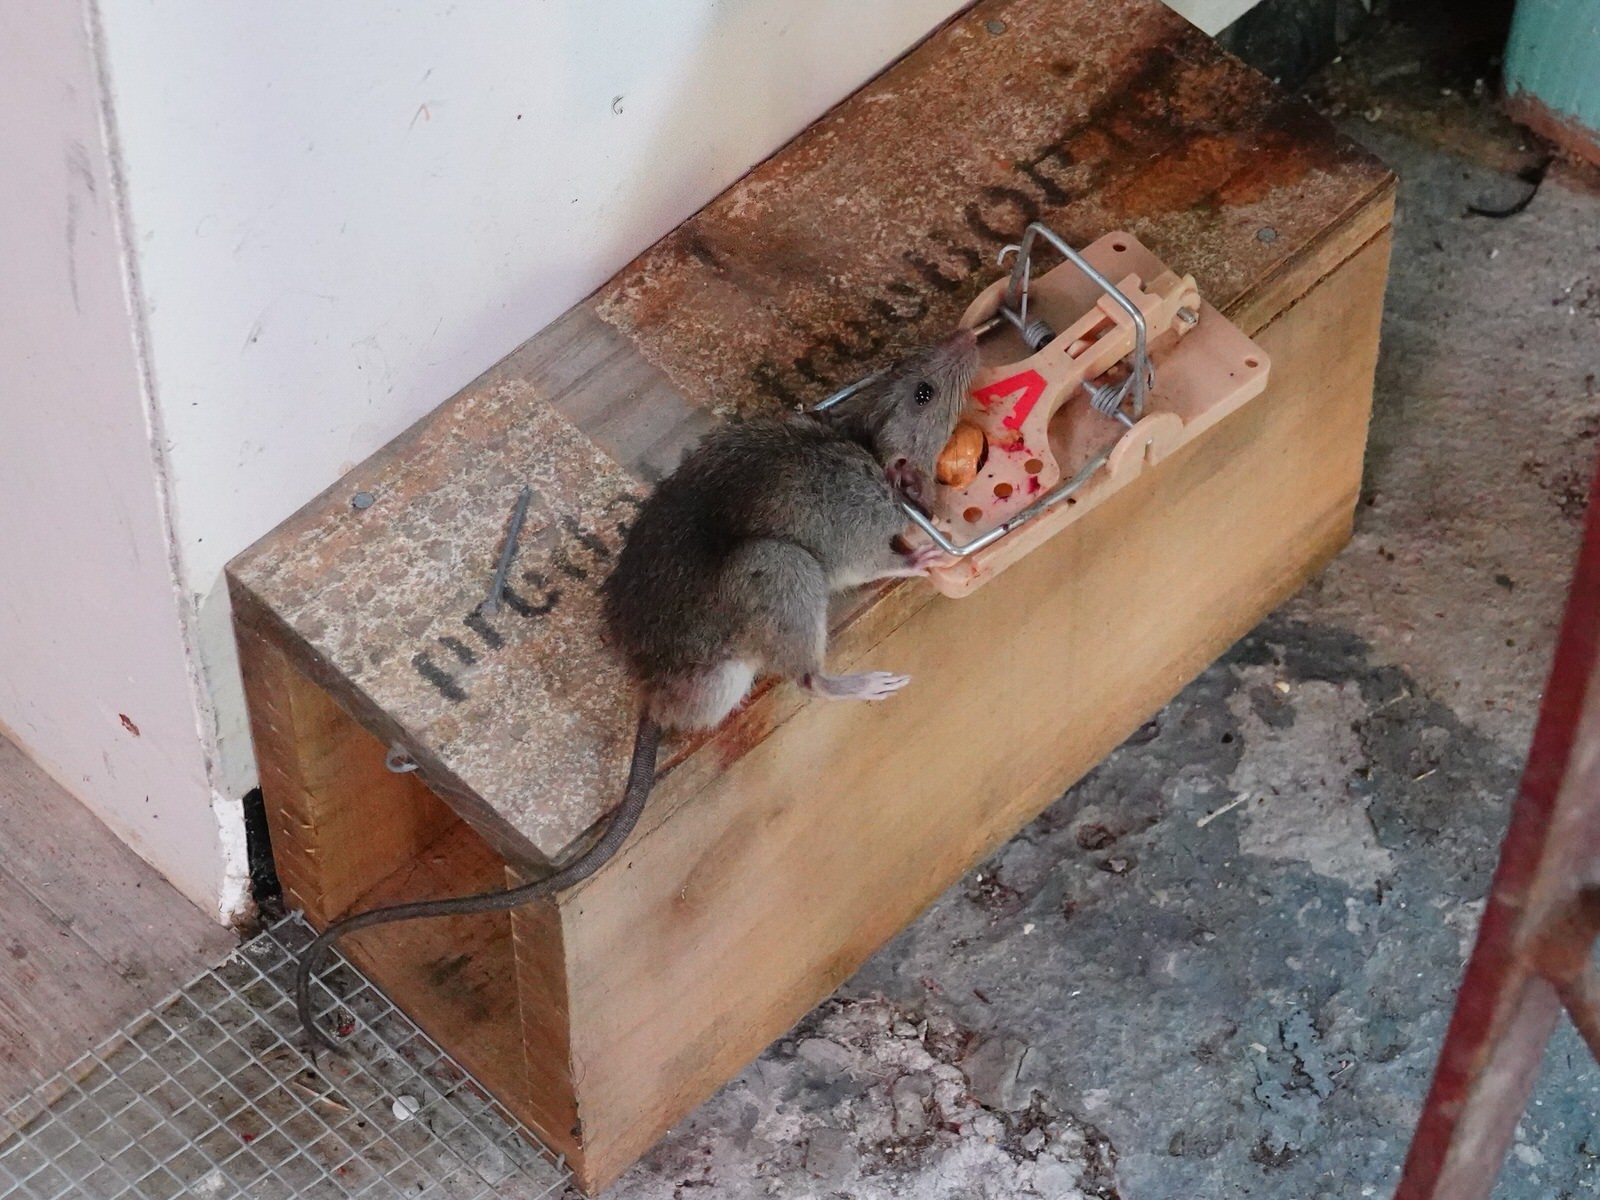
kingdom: Animalia
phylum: Chordata
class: Mammalia
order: Rodentia
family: Muridae
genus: Rattus
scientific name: Rattus rattus
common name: Black rat
